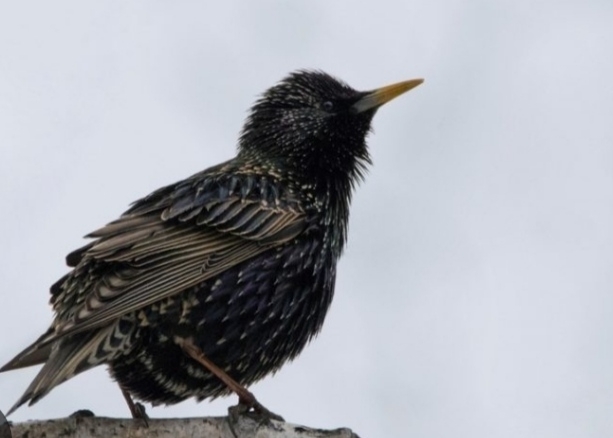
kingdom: Animalia
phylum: Chordata
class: Aves
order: Passeriformes
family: Sturnidae
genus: Sturnus
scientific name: Sturnus vulgaris
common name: Common starling
